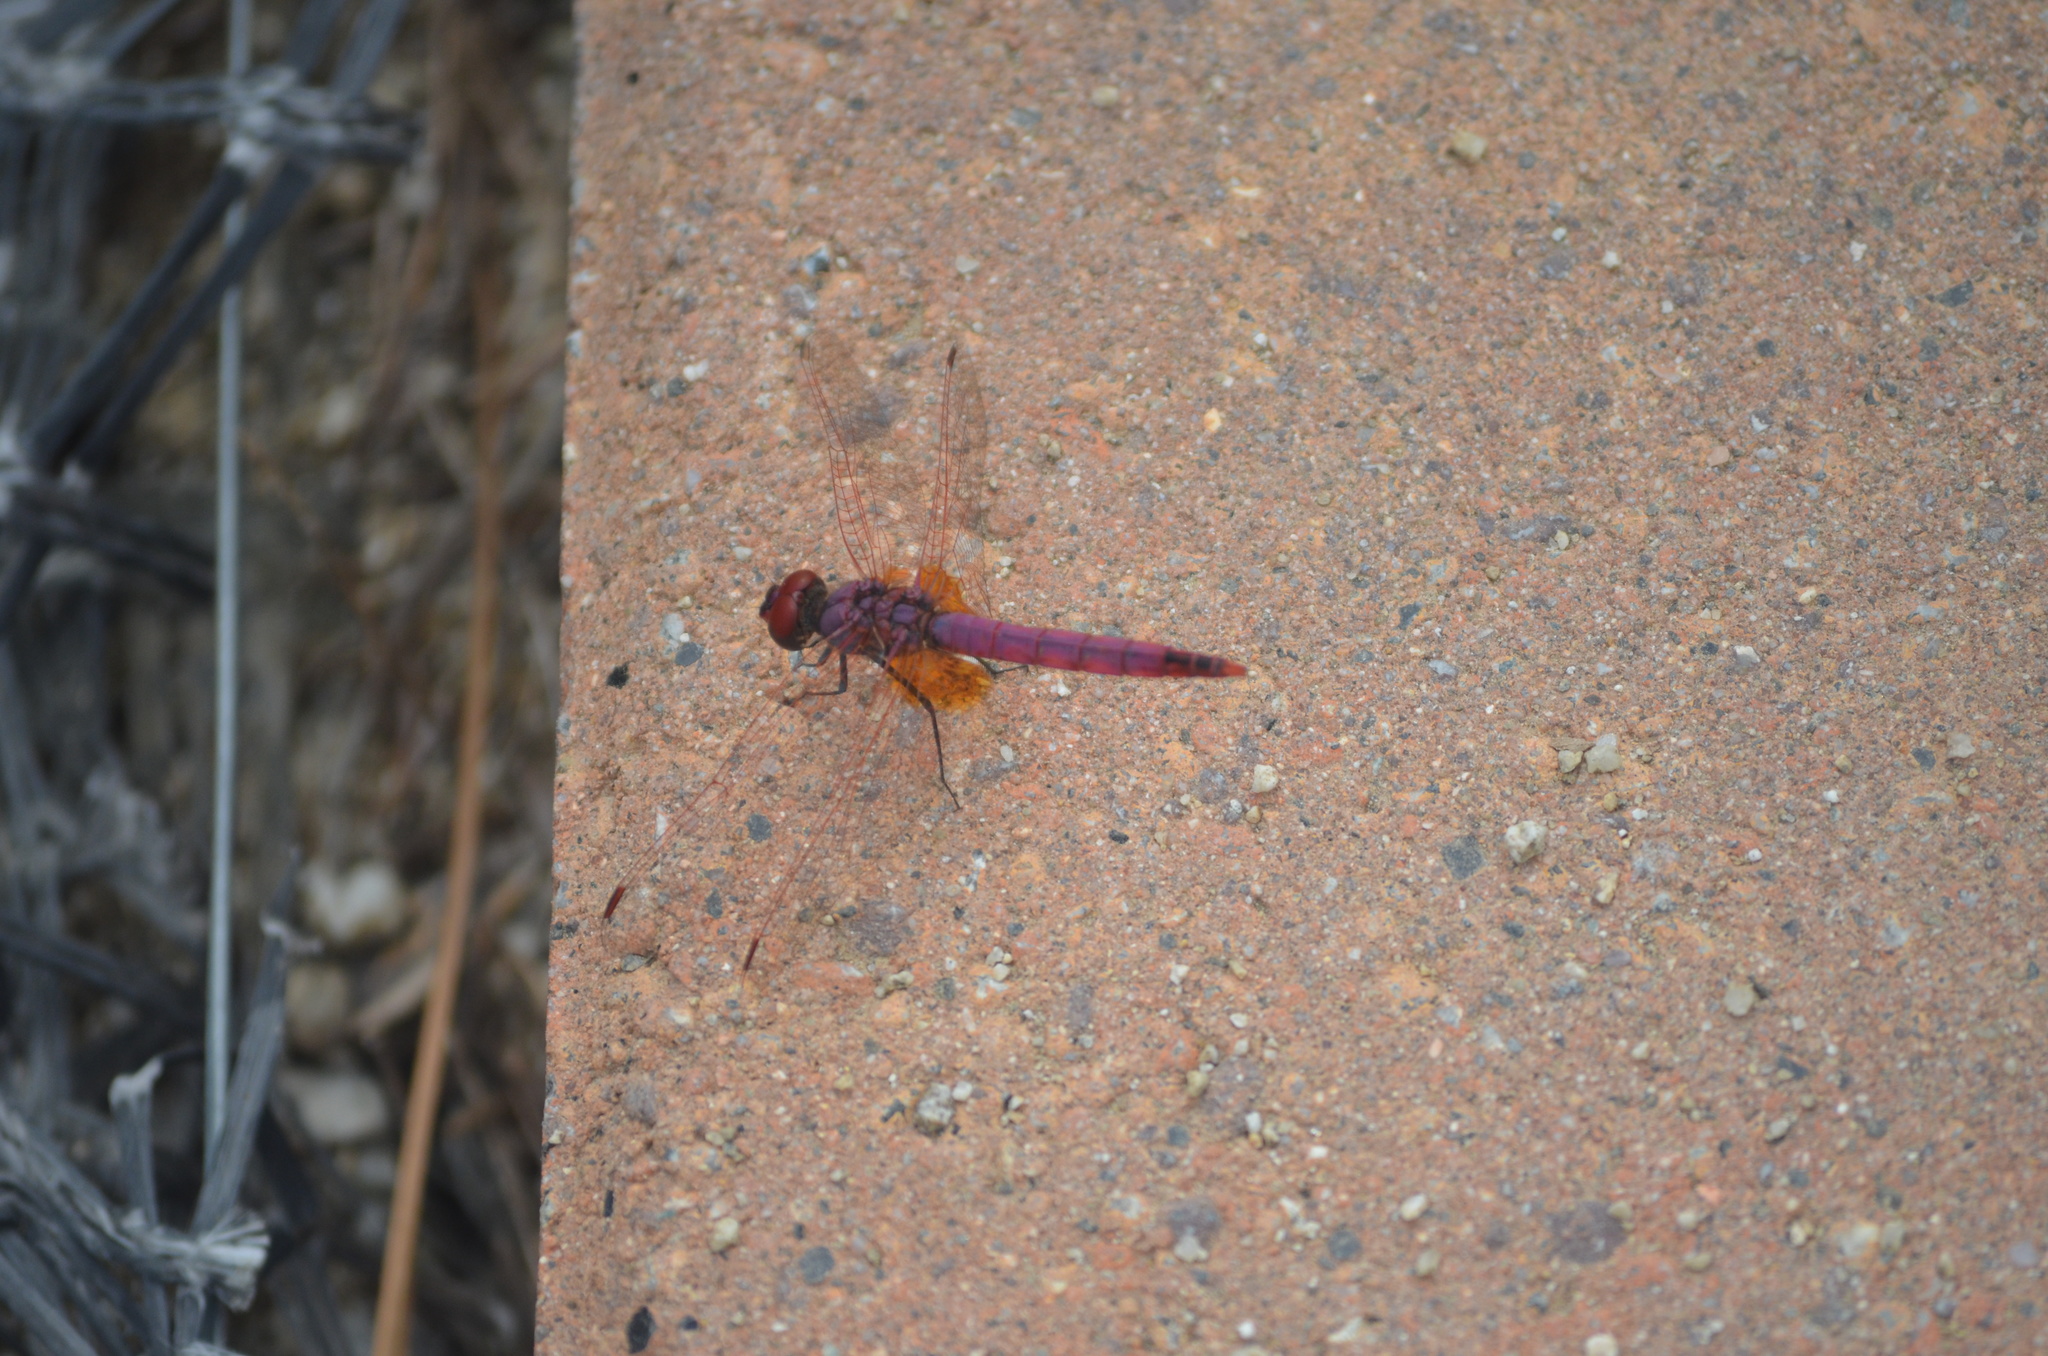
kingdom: Animalia
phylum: Arthropoda
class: Insecta
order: Odonata
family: Libellulidae
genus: Trithemis
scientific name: Trithemis annulata
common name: Violet dropwing
